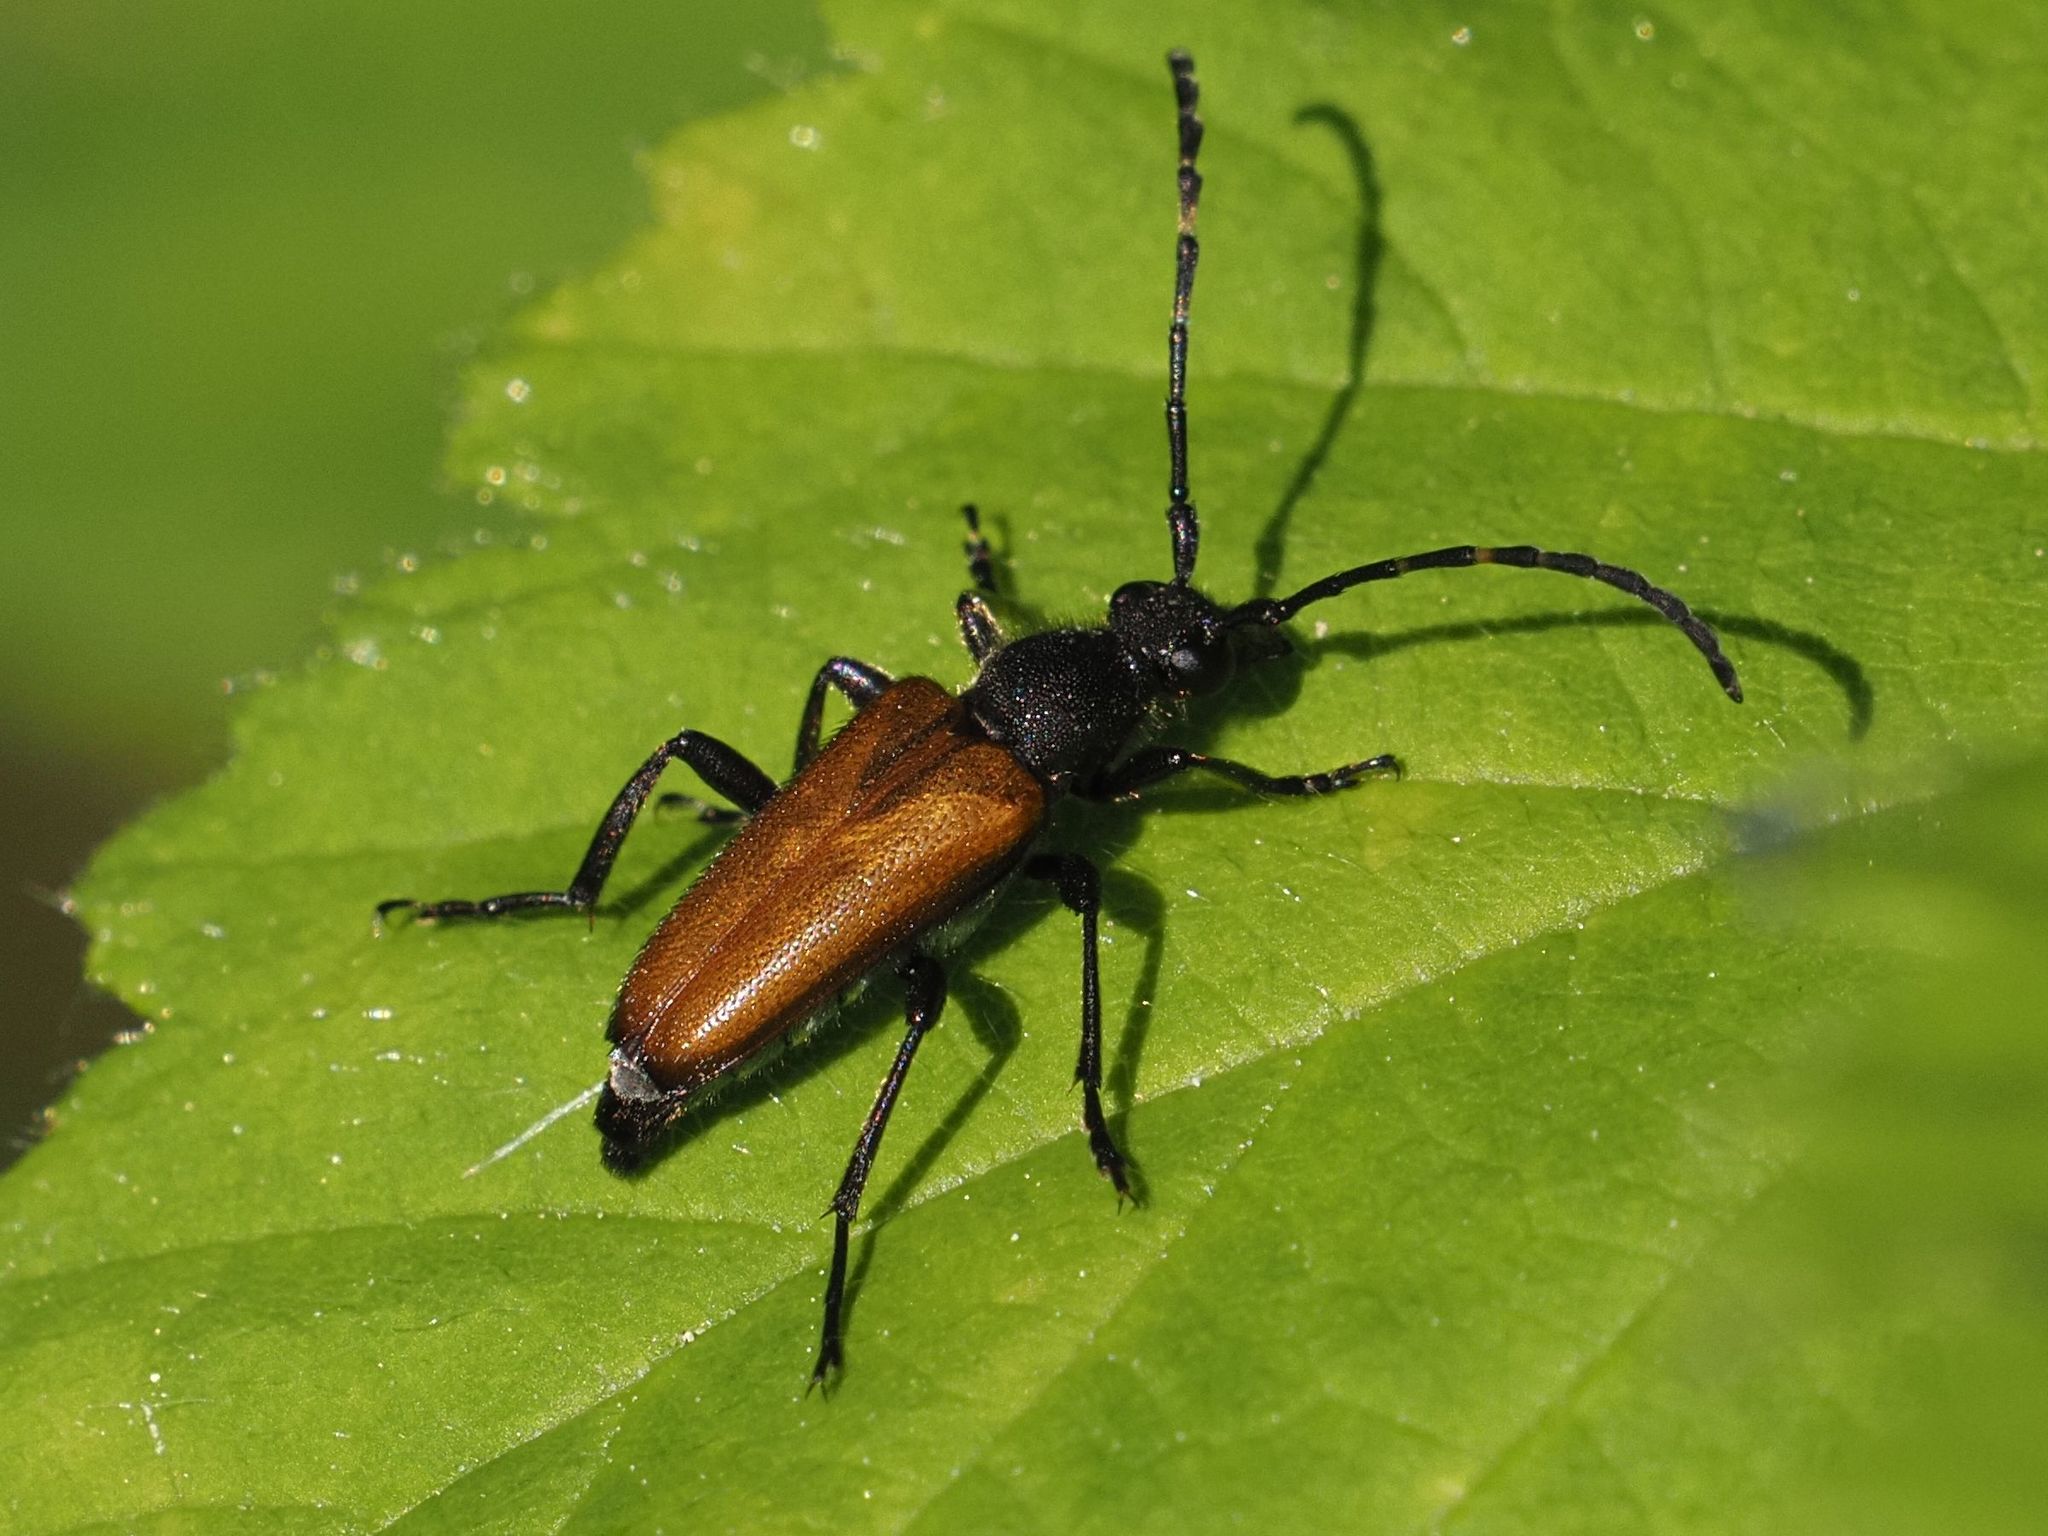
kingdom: Animalia
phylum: Arthropoda
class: Insecta
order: Coleoptera
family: Cerambycidae
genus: Paracorymbia
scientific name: Paracorymbia maculicornis
